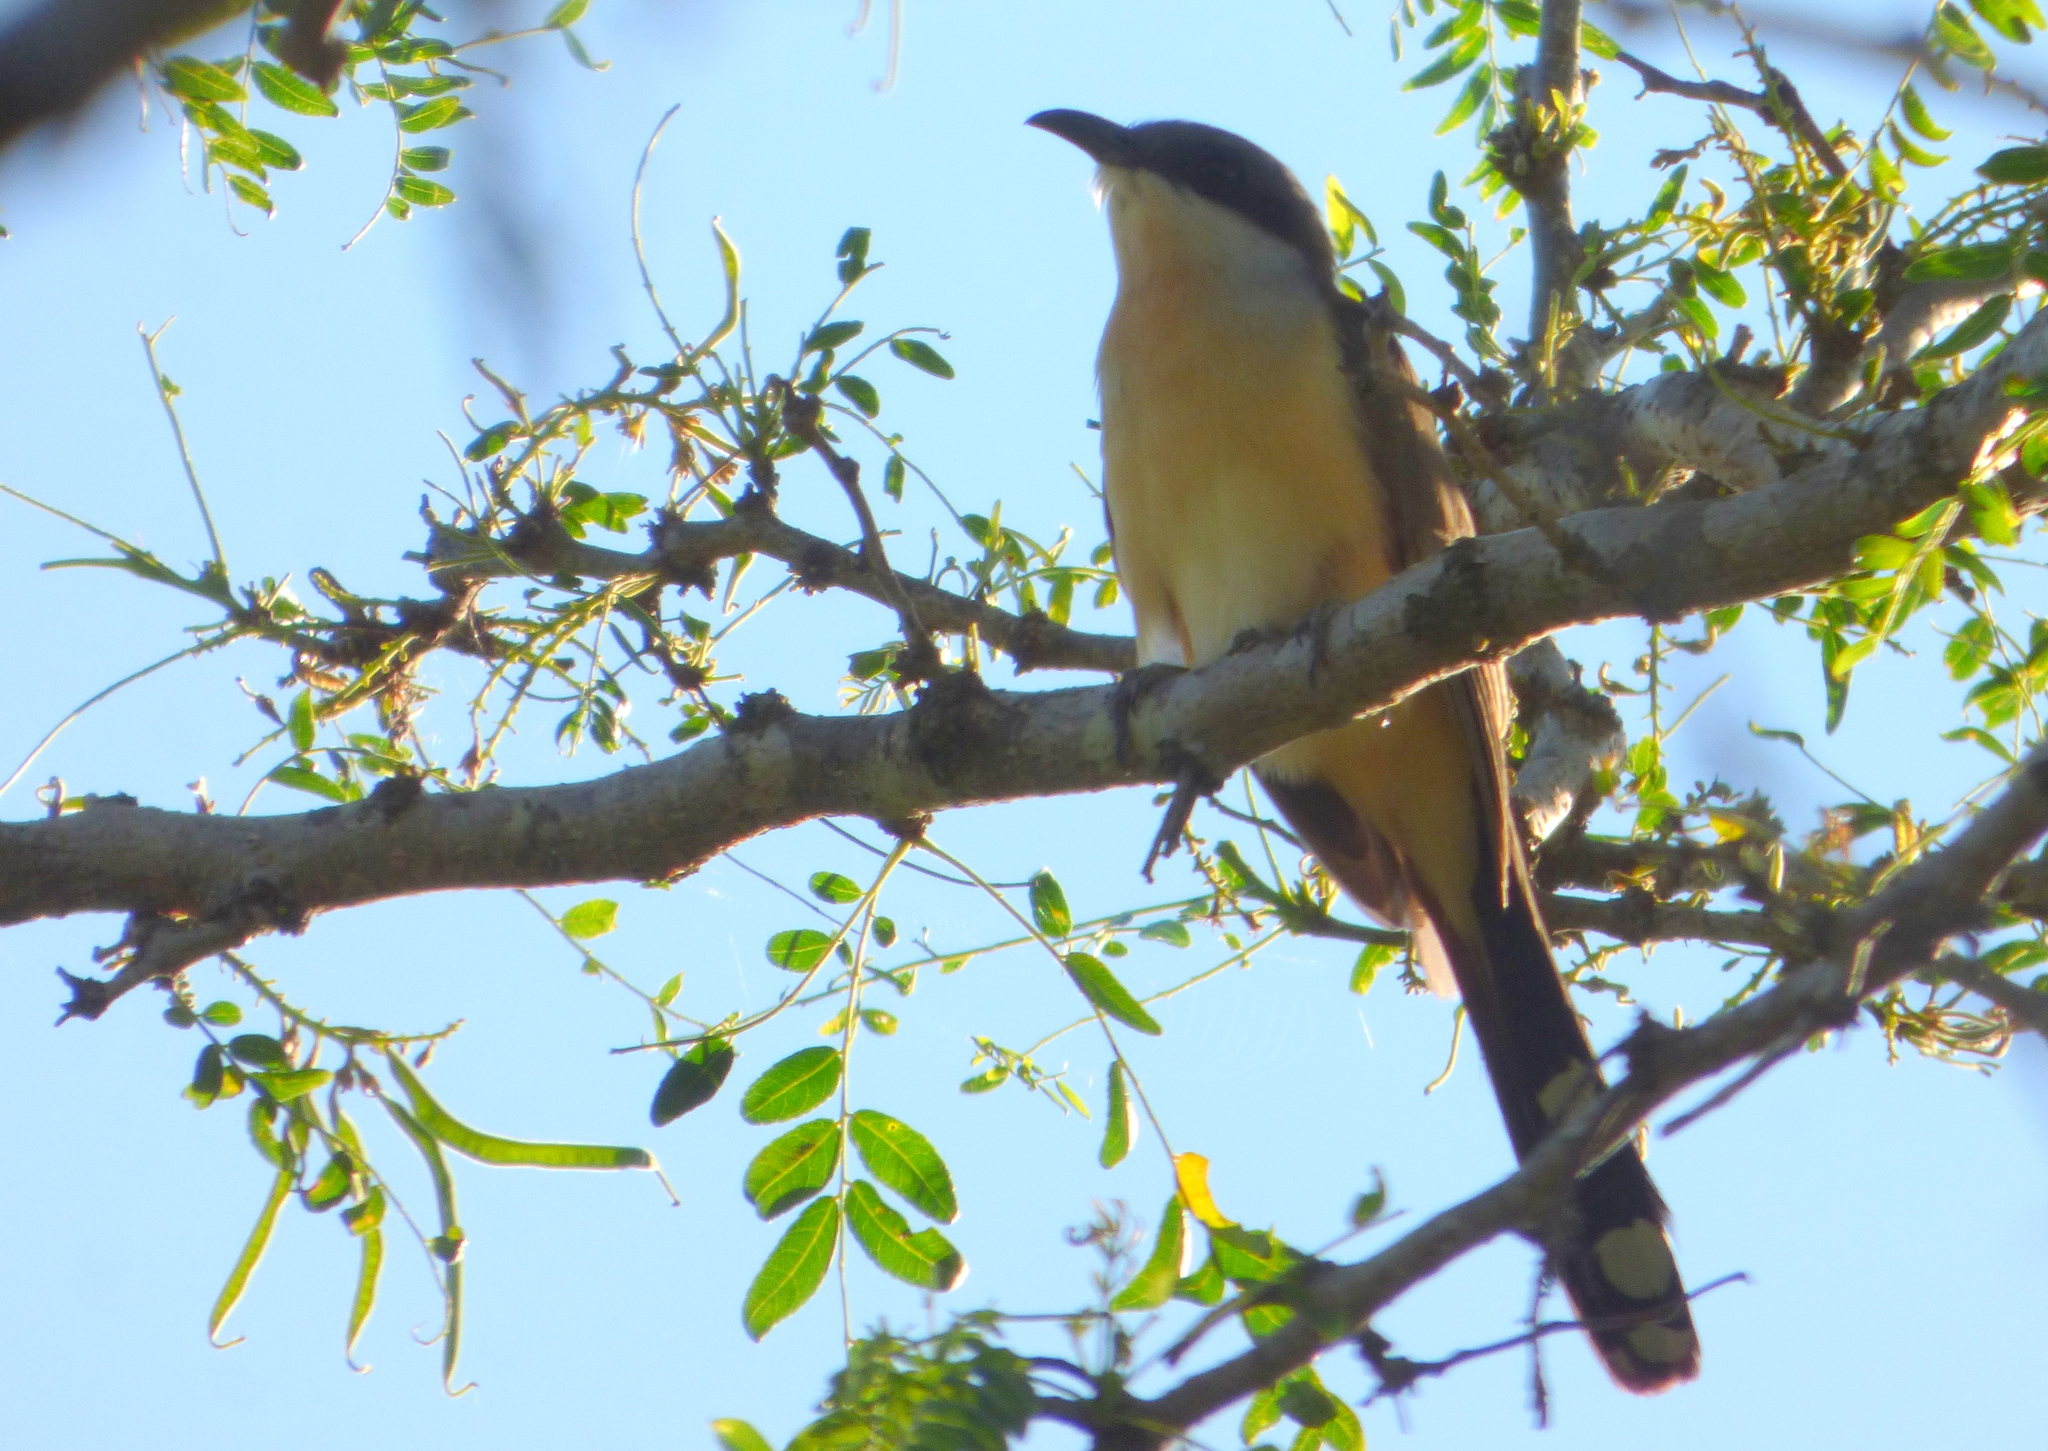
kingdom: Animalia
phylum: Chordata
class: Aves
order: Cuculiformes
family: Cuculidae
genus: Coccyzus
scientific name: Coccyzus melacoryphus
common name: Dark-billed cuckoo
